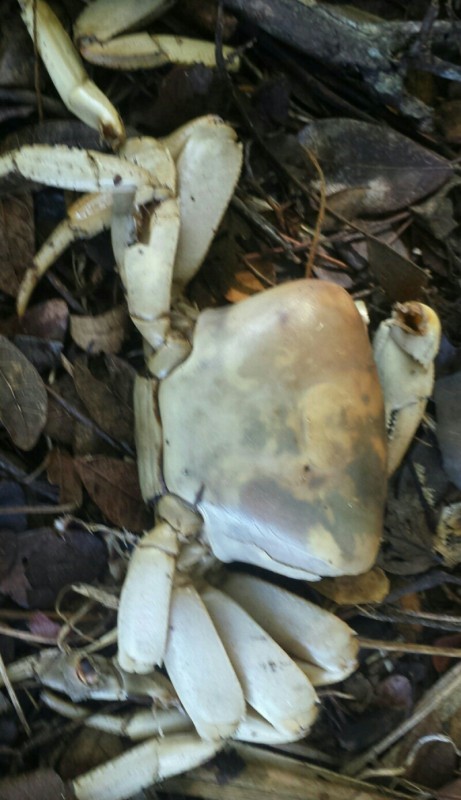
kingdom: Animalia
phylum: Arthropoda
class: Malacostraca
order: Decapoda
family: Gecarcinidae
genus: Cardisoma
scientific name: Cardisoma guanhumi
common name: Great land crab
